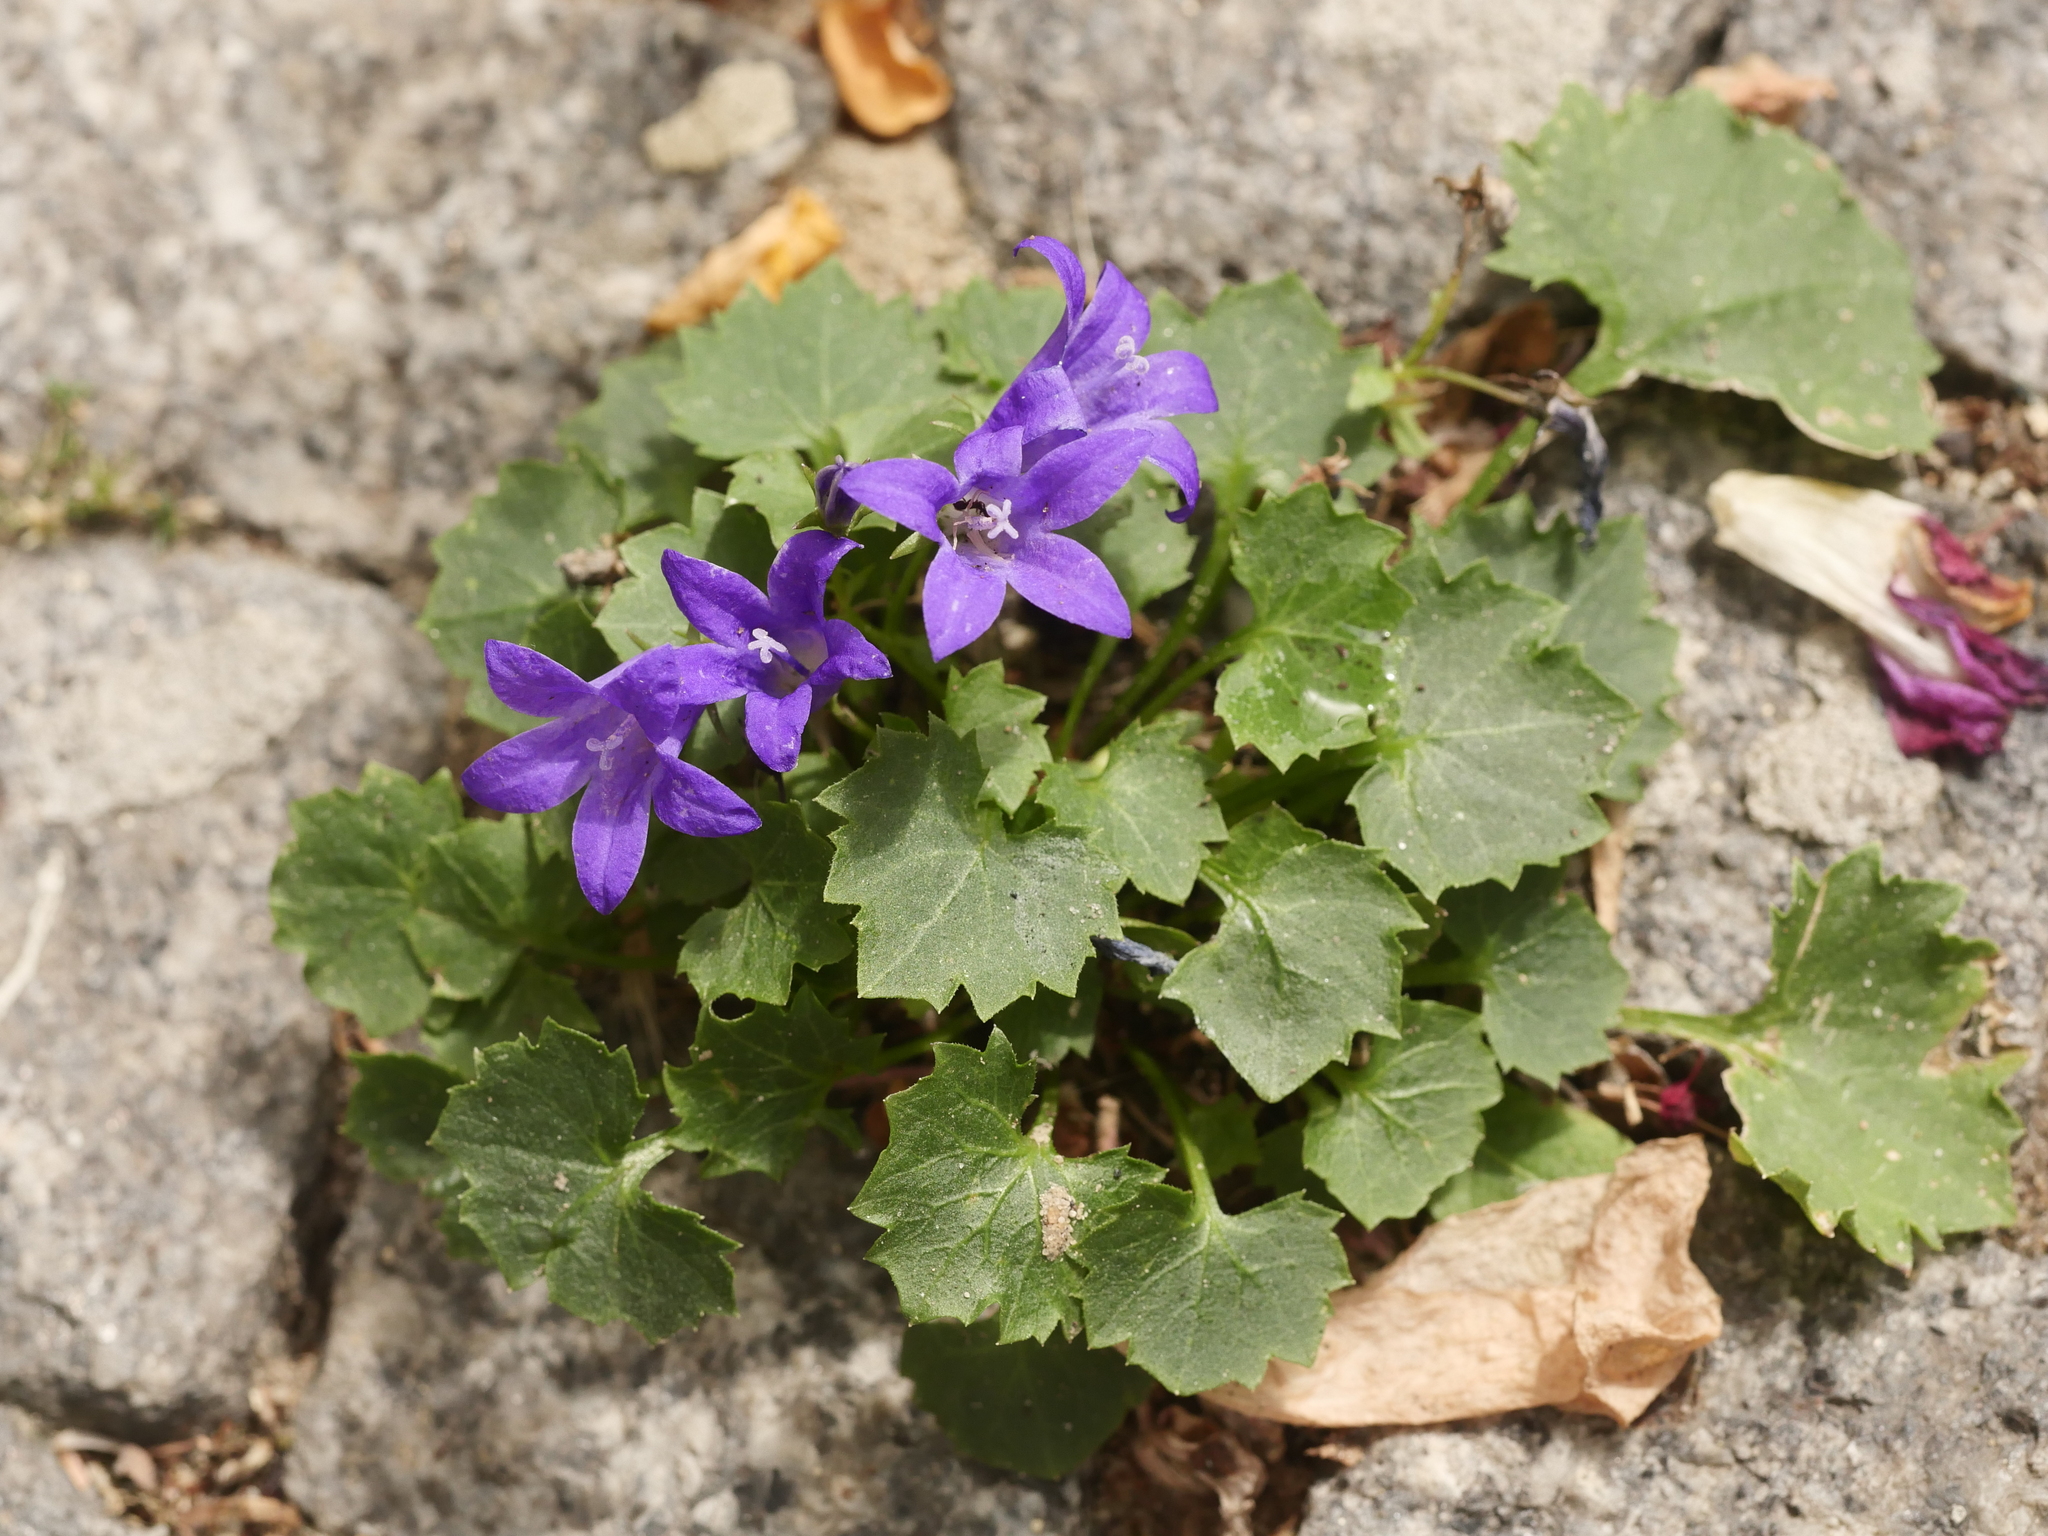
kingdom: Plantae
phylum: Tracheophyta
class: Magnoliopsida
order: Asterales
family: Campanulaceae
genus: Campanula
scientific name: Campanula poscharskyana
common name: Trailing bellflower
